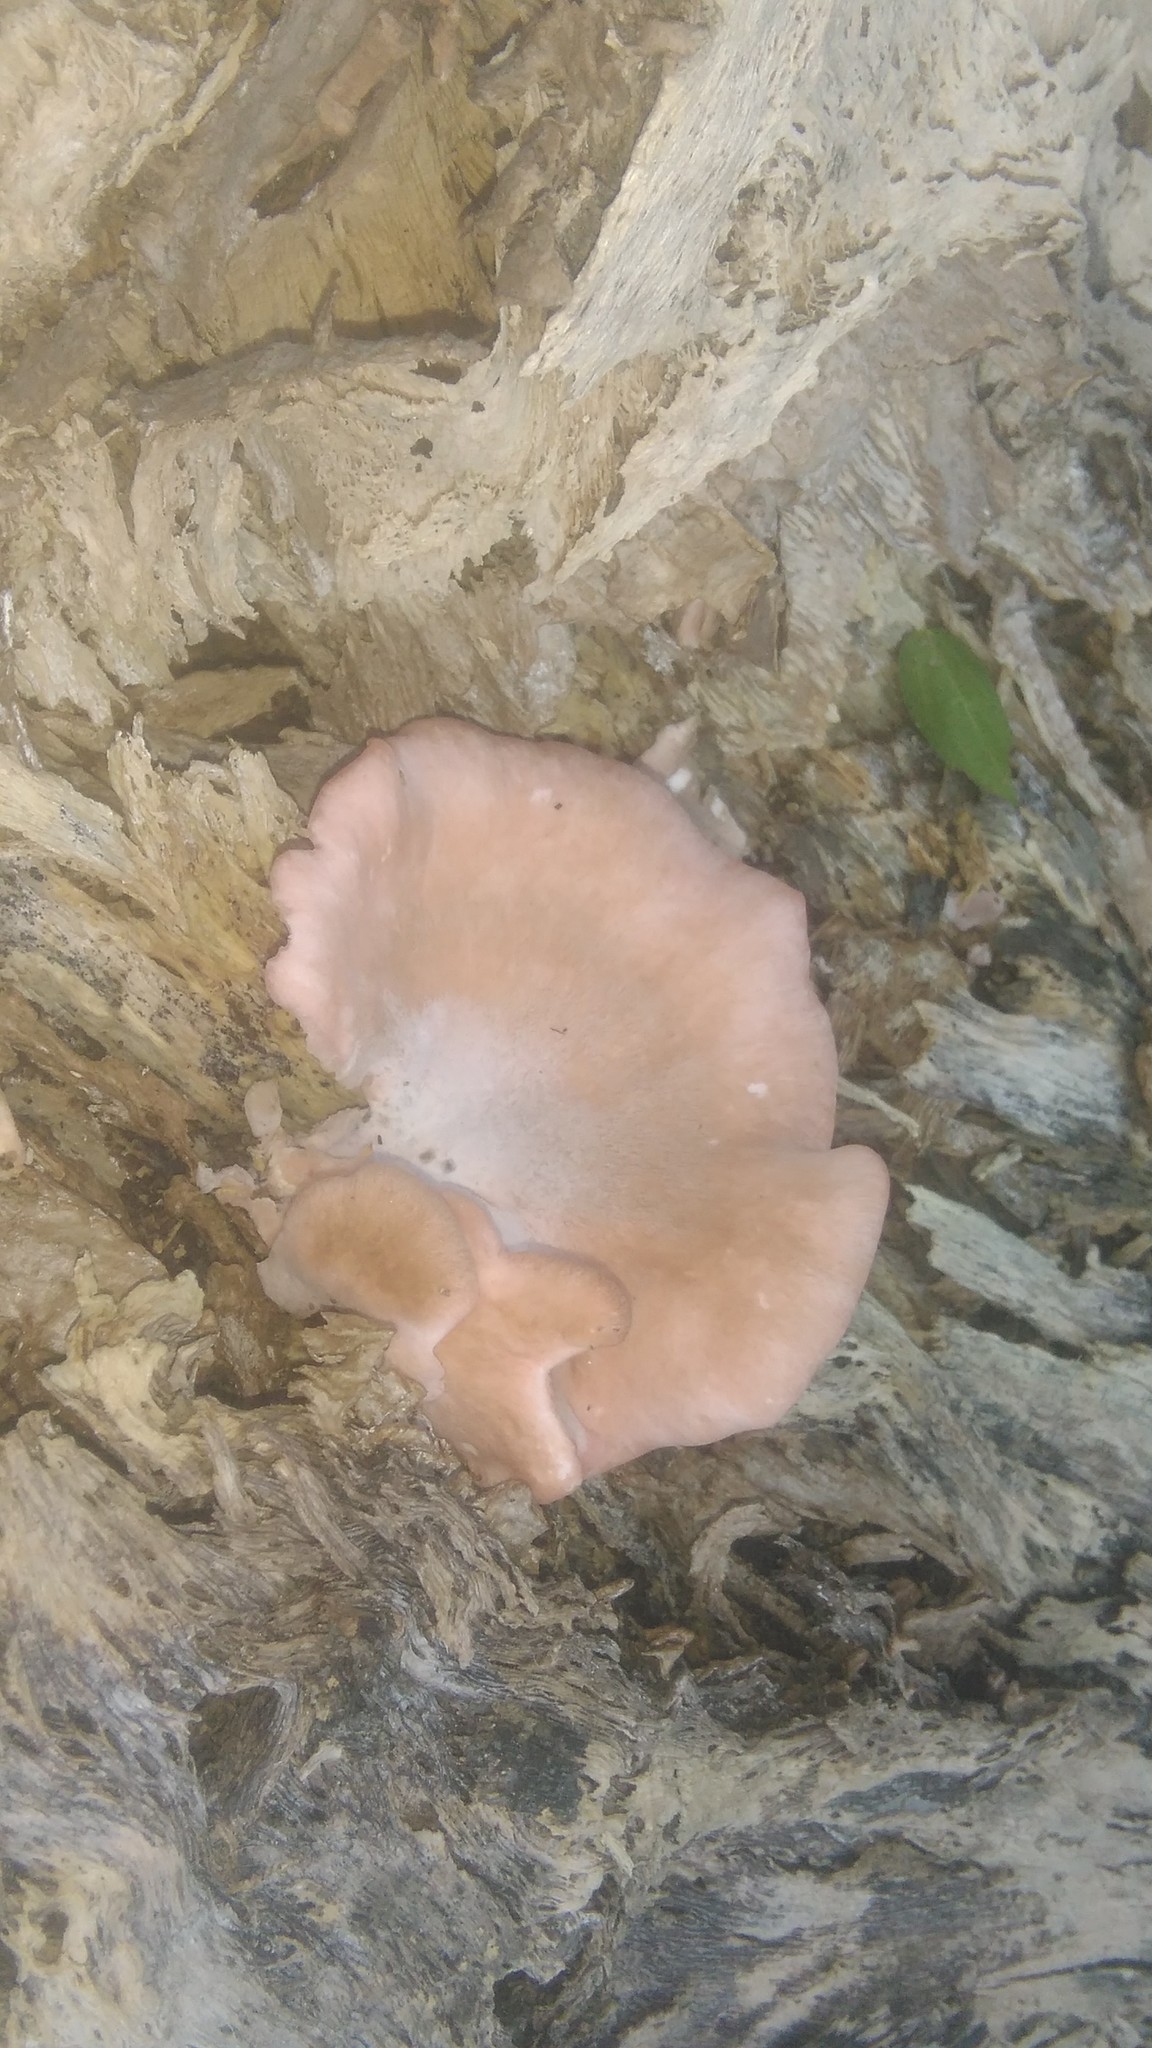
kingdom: Fungi
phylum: Basidiomycota
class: Agaricomycetes
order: Agaricales
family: Pleurotaceae
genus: Pleurotus
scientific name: Pleurotus djamor
